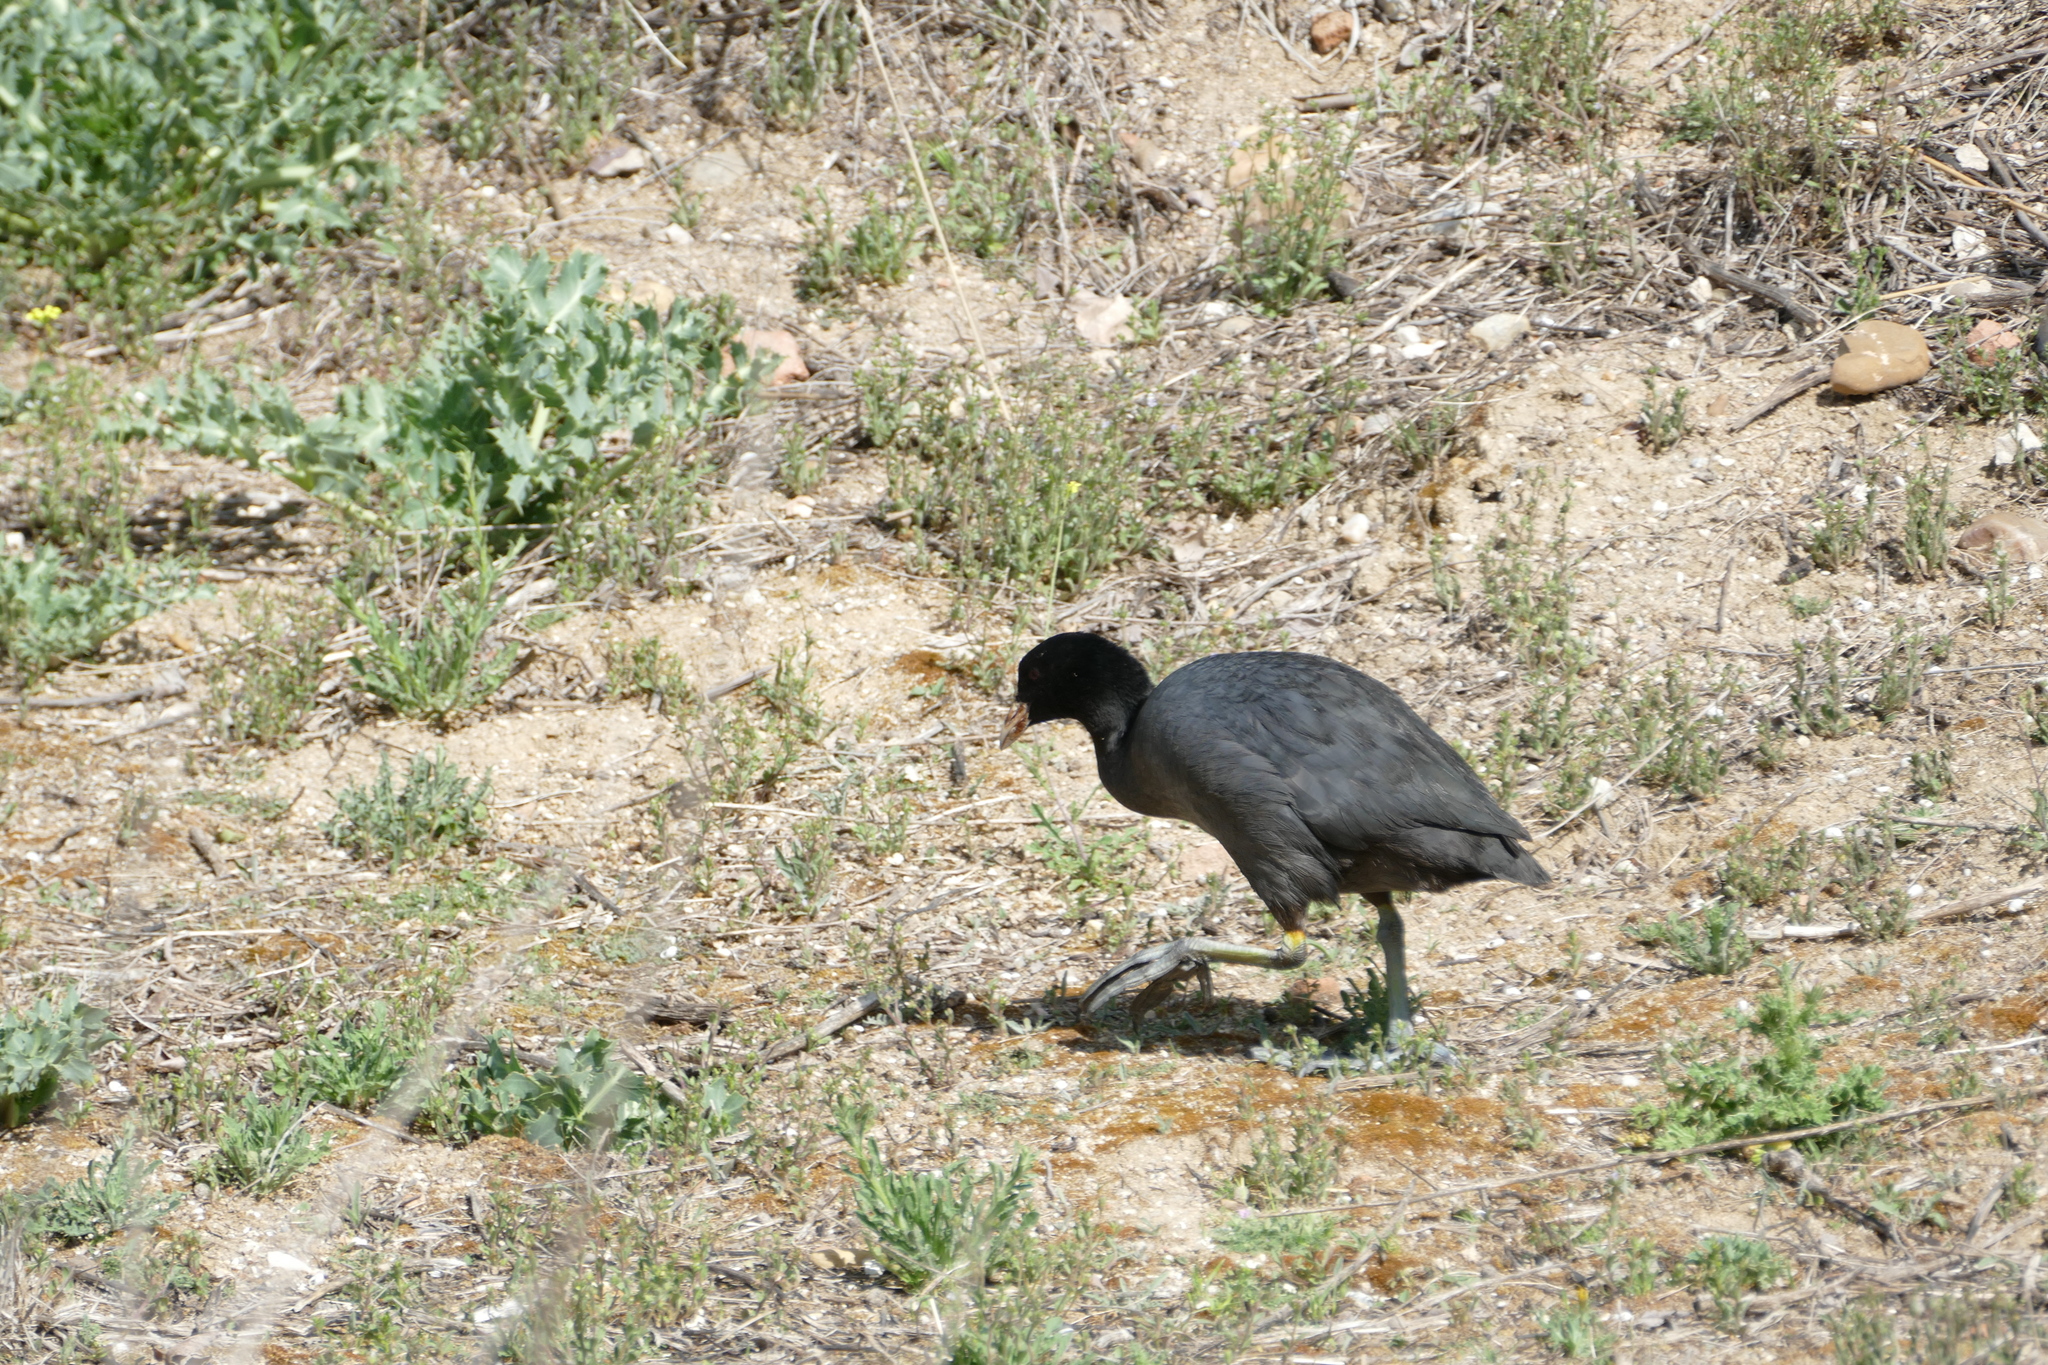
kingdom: Animalia
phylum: Chordata
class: Aves
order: Gruiformes
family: Rallidae
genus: Fulica
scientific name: Fulica atra
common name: Eurasian coot
